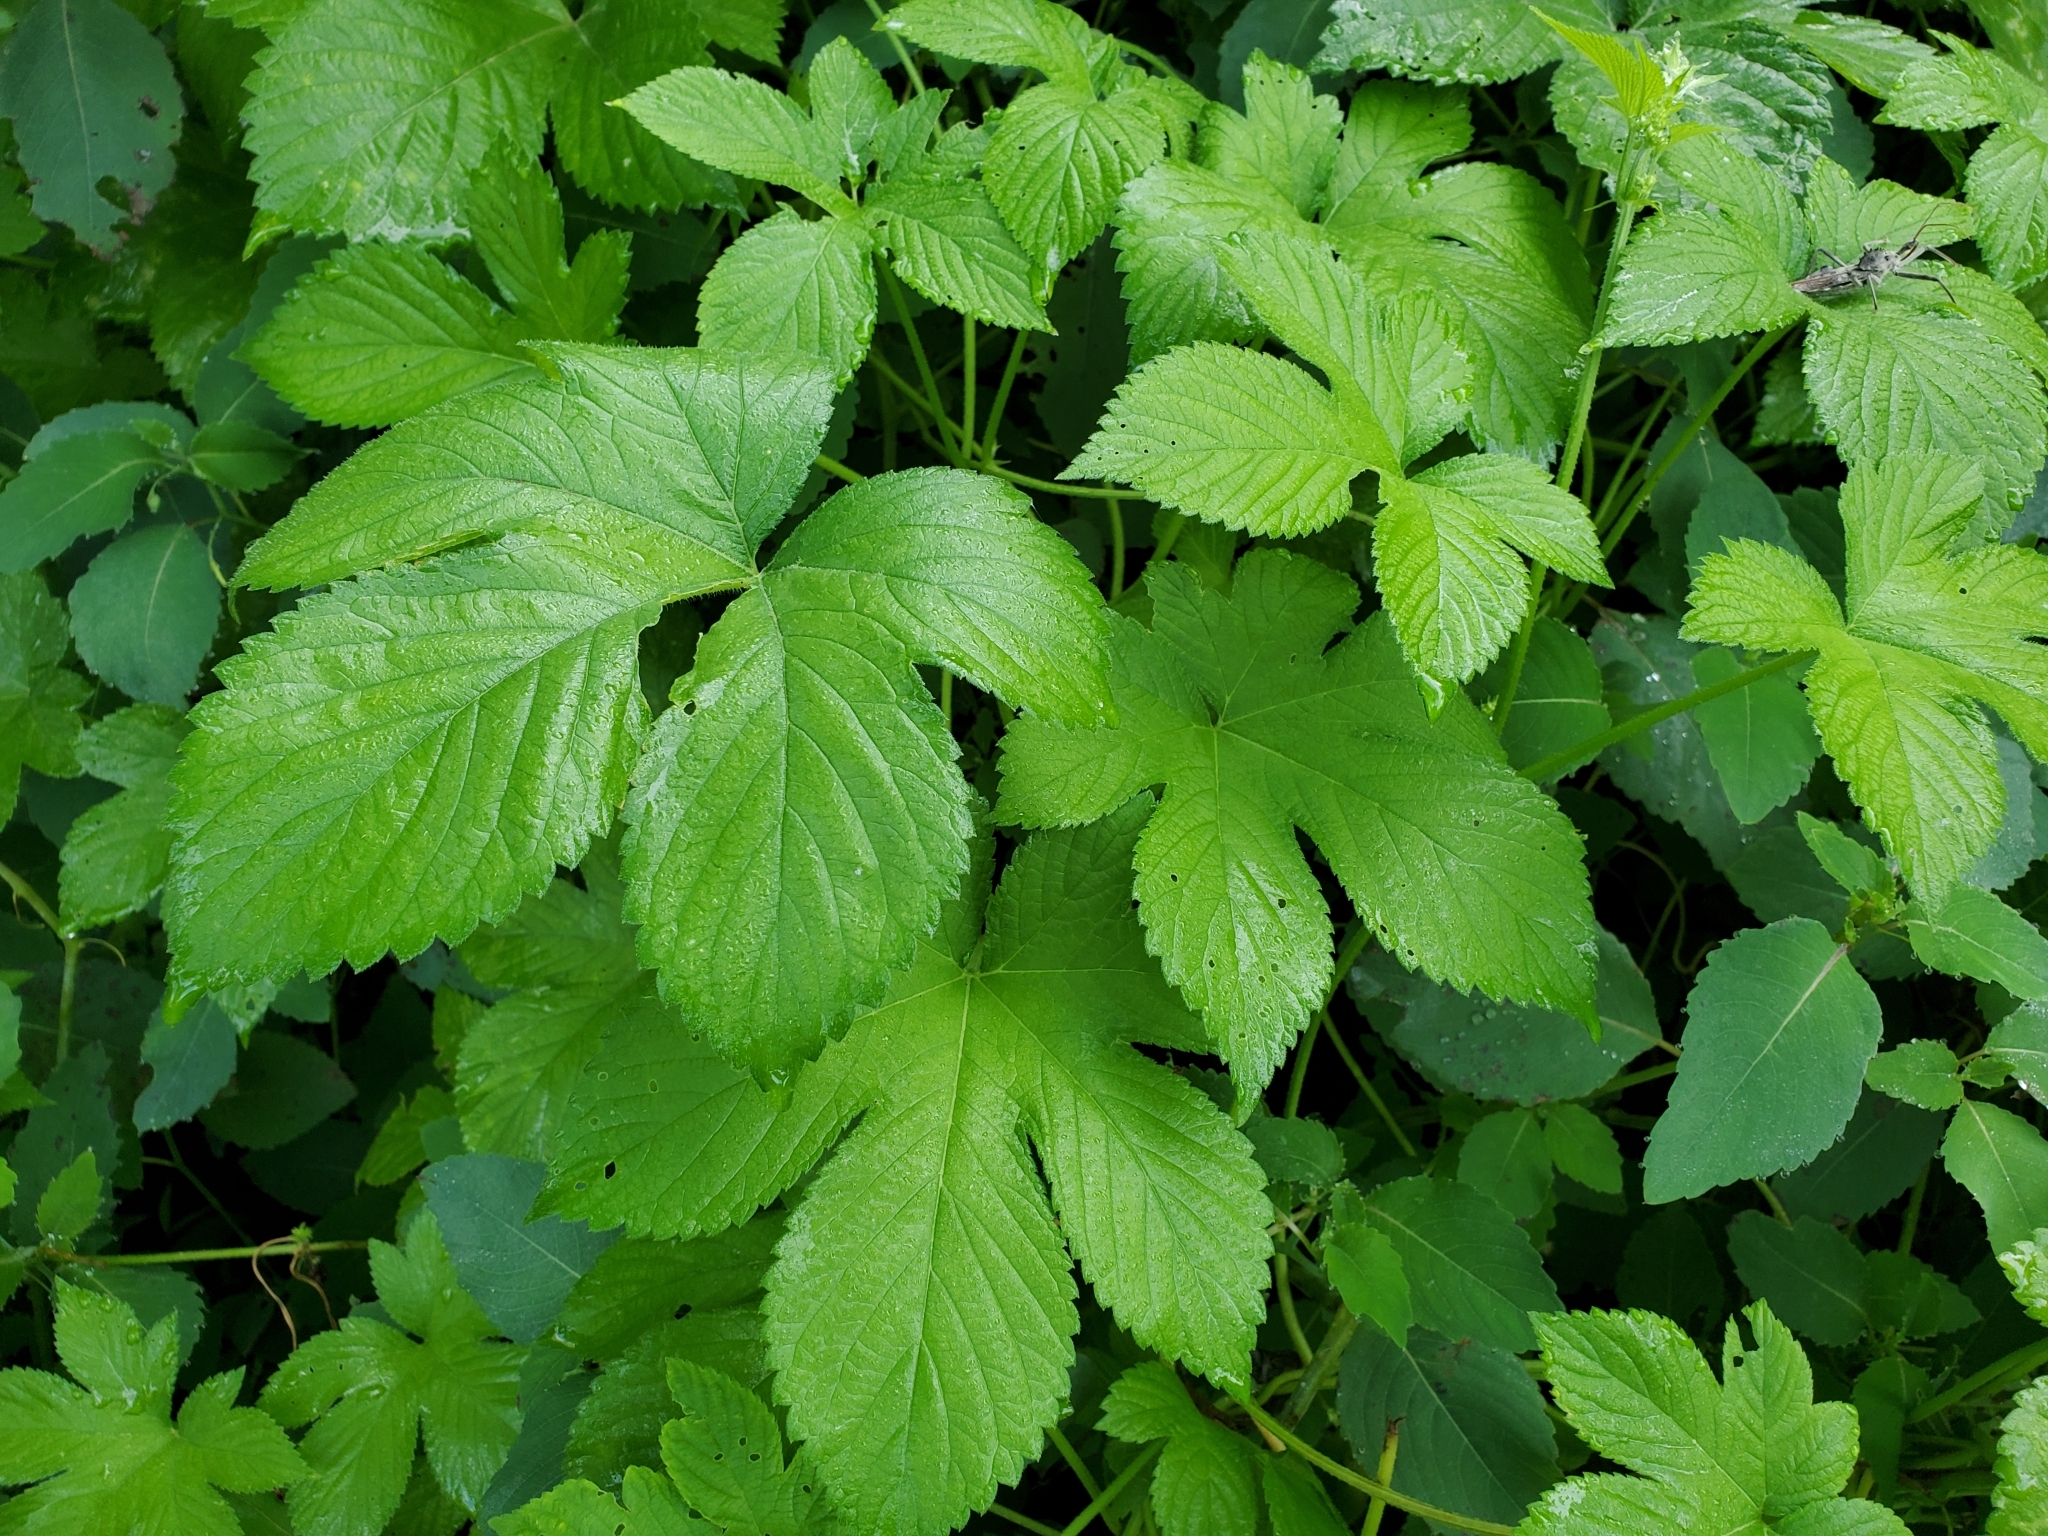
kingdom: Plantae
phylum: Tracheophyta
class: Magnoliopsida
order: Rosales
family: Cannabaceae
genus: Humulus
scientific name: Humulus scandens
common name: Japanese hop
